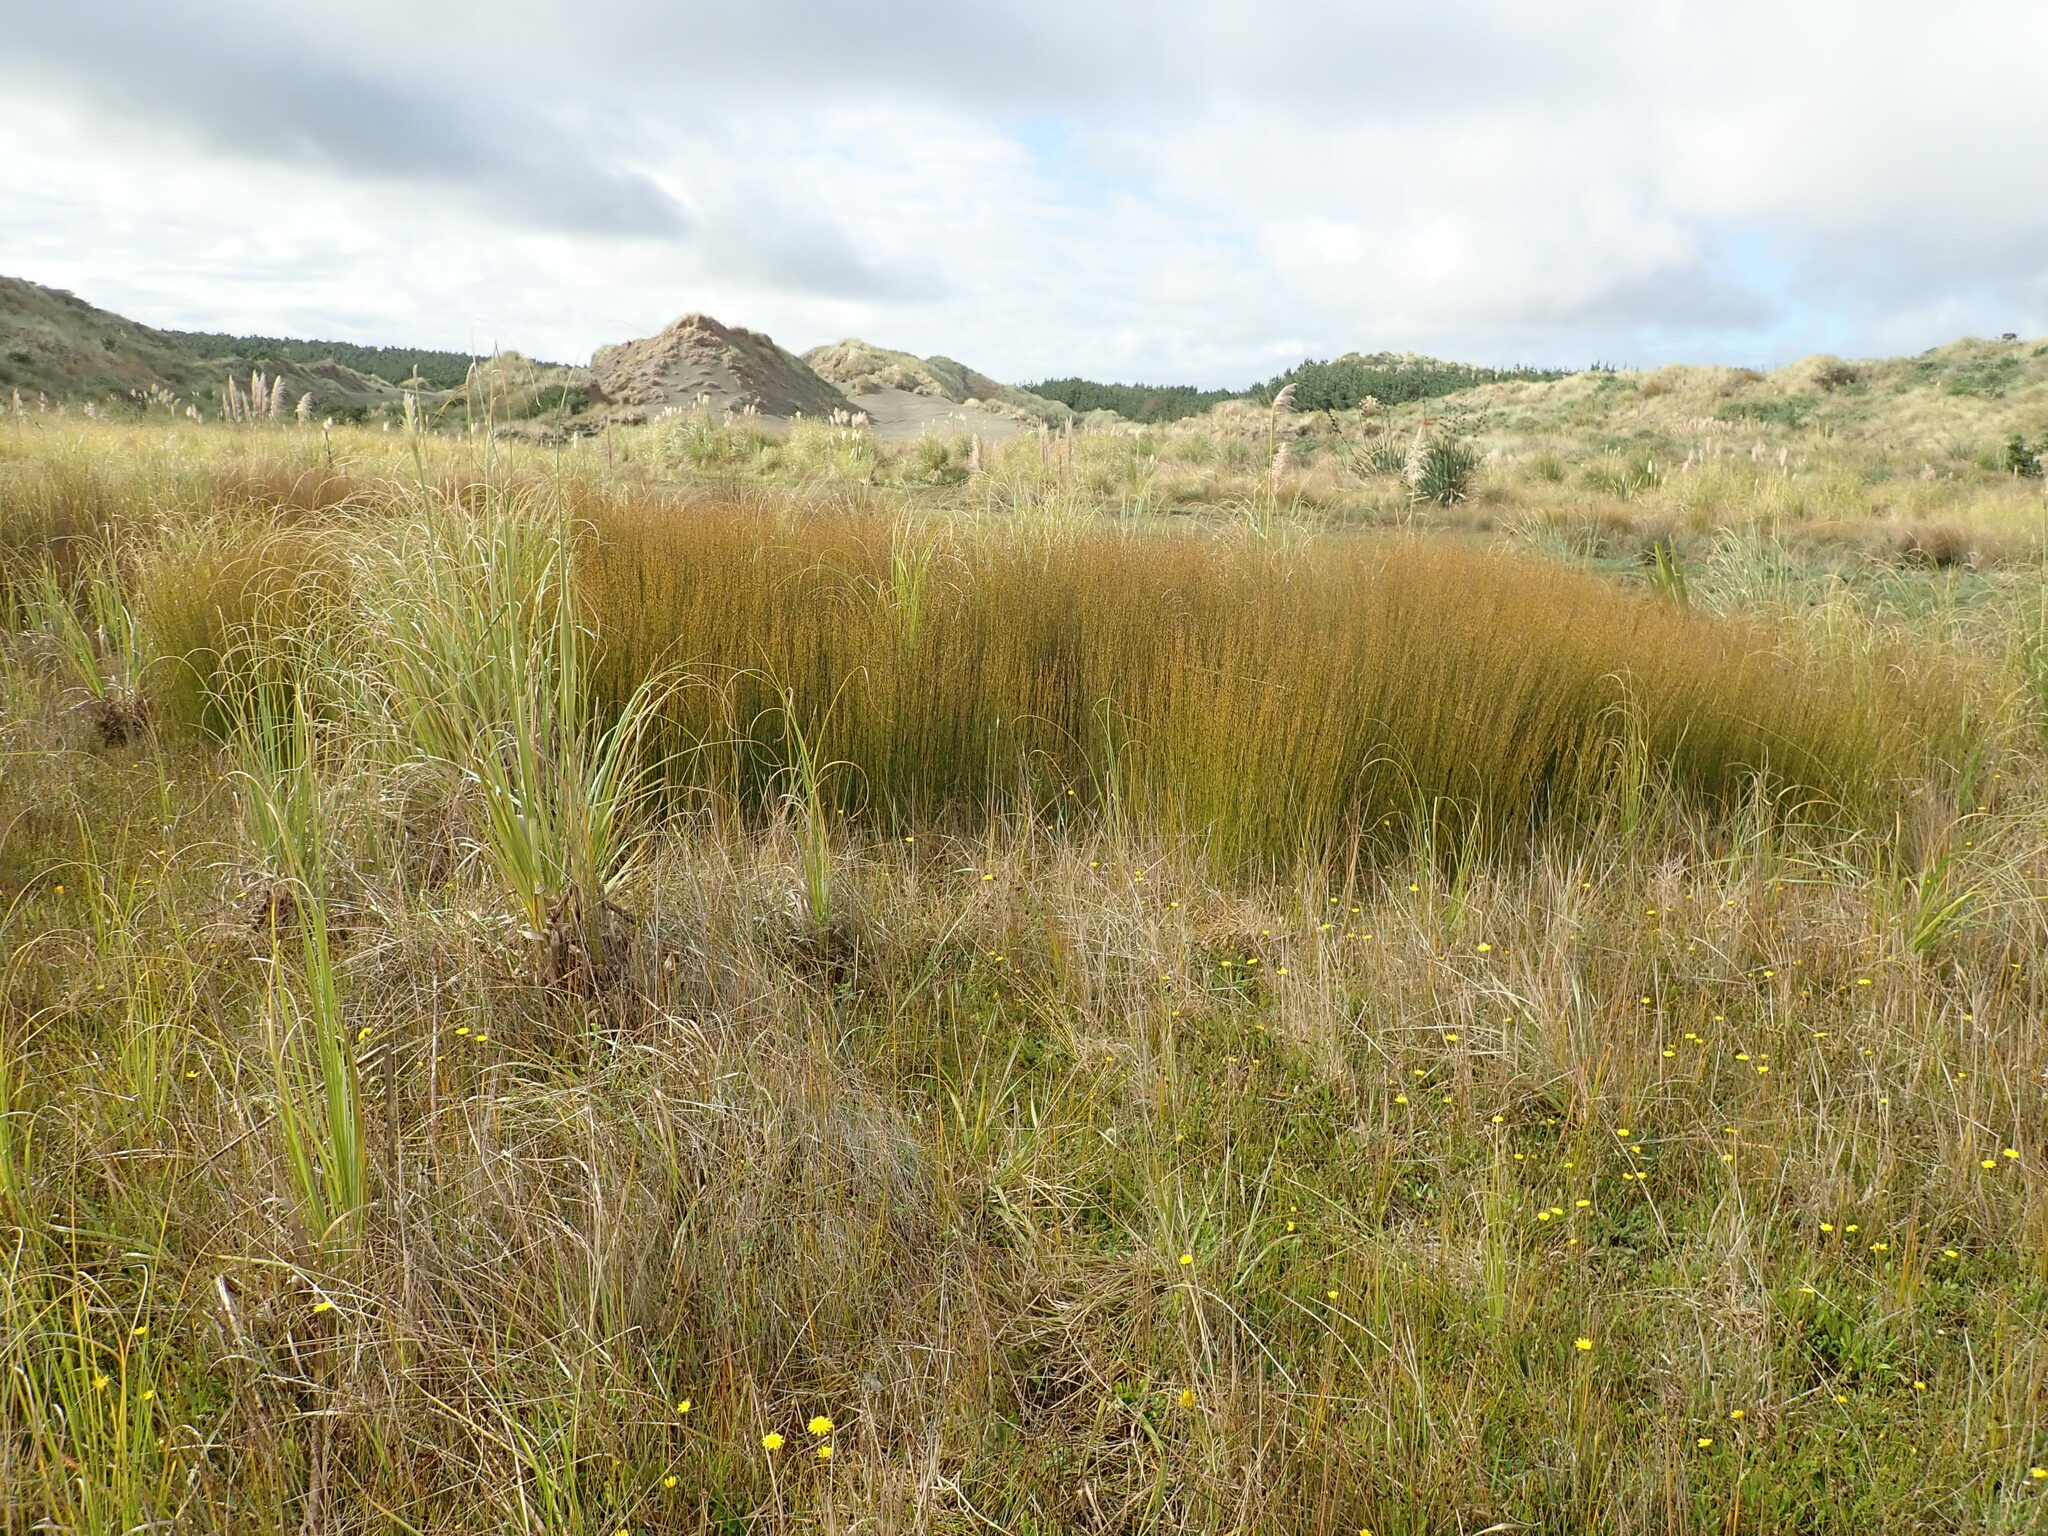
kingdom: Plantae
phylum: Tracheophyta
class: Liliopsida
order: Poales
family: Restionaceae
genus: Apodasmia
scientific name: Apodasmia similis
